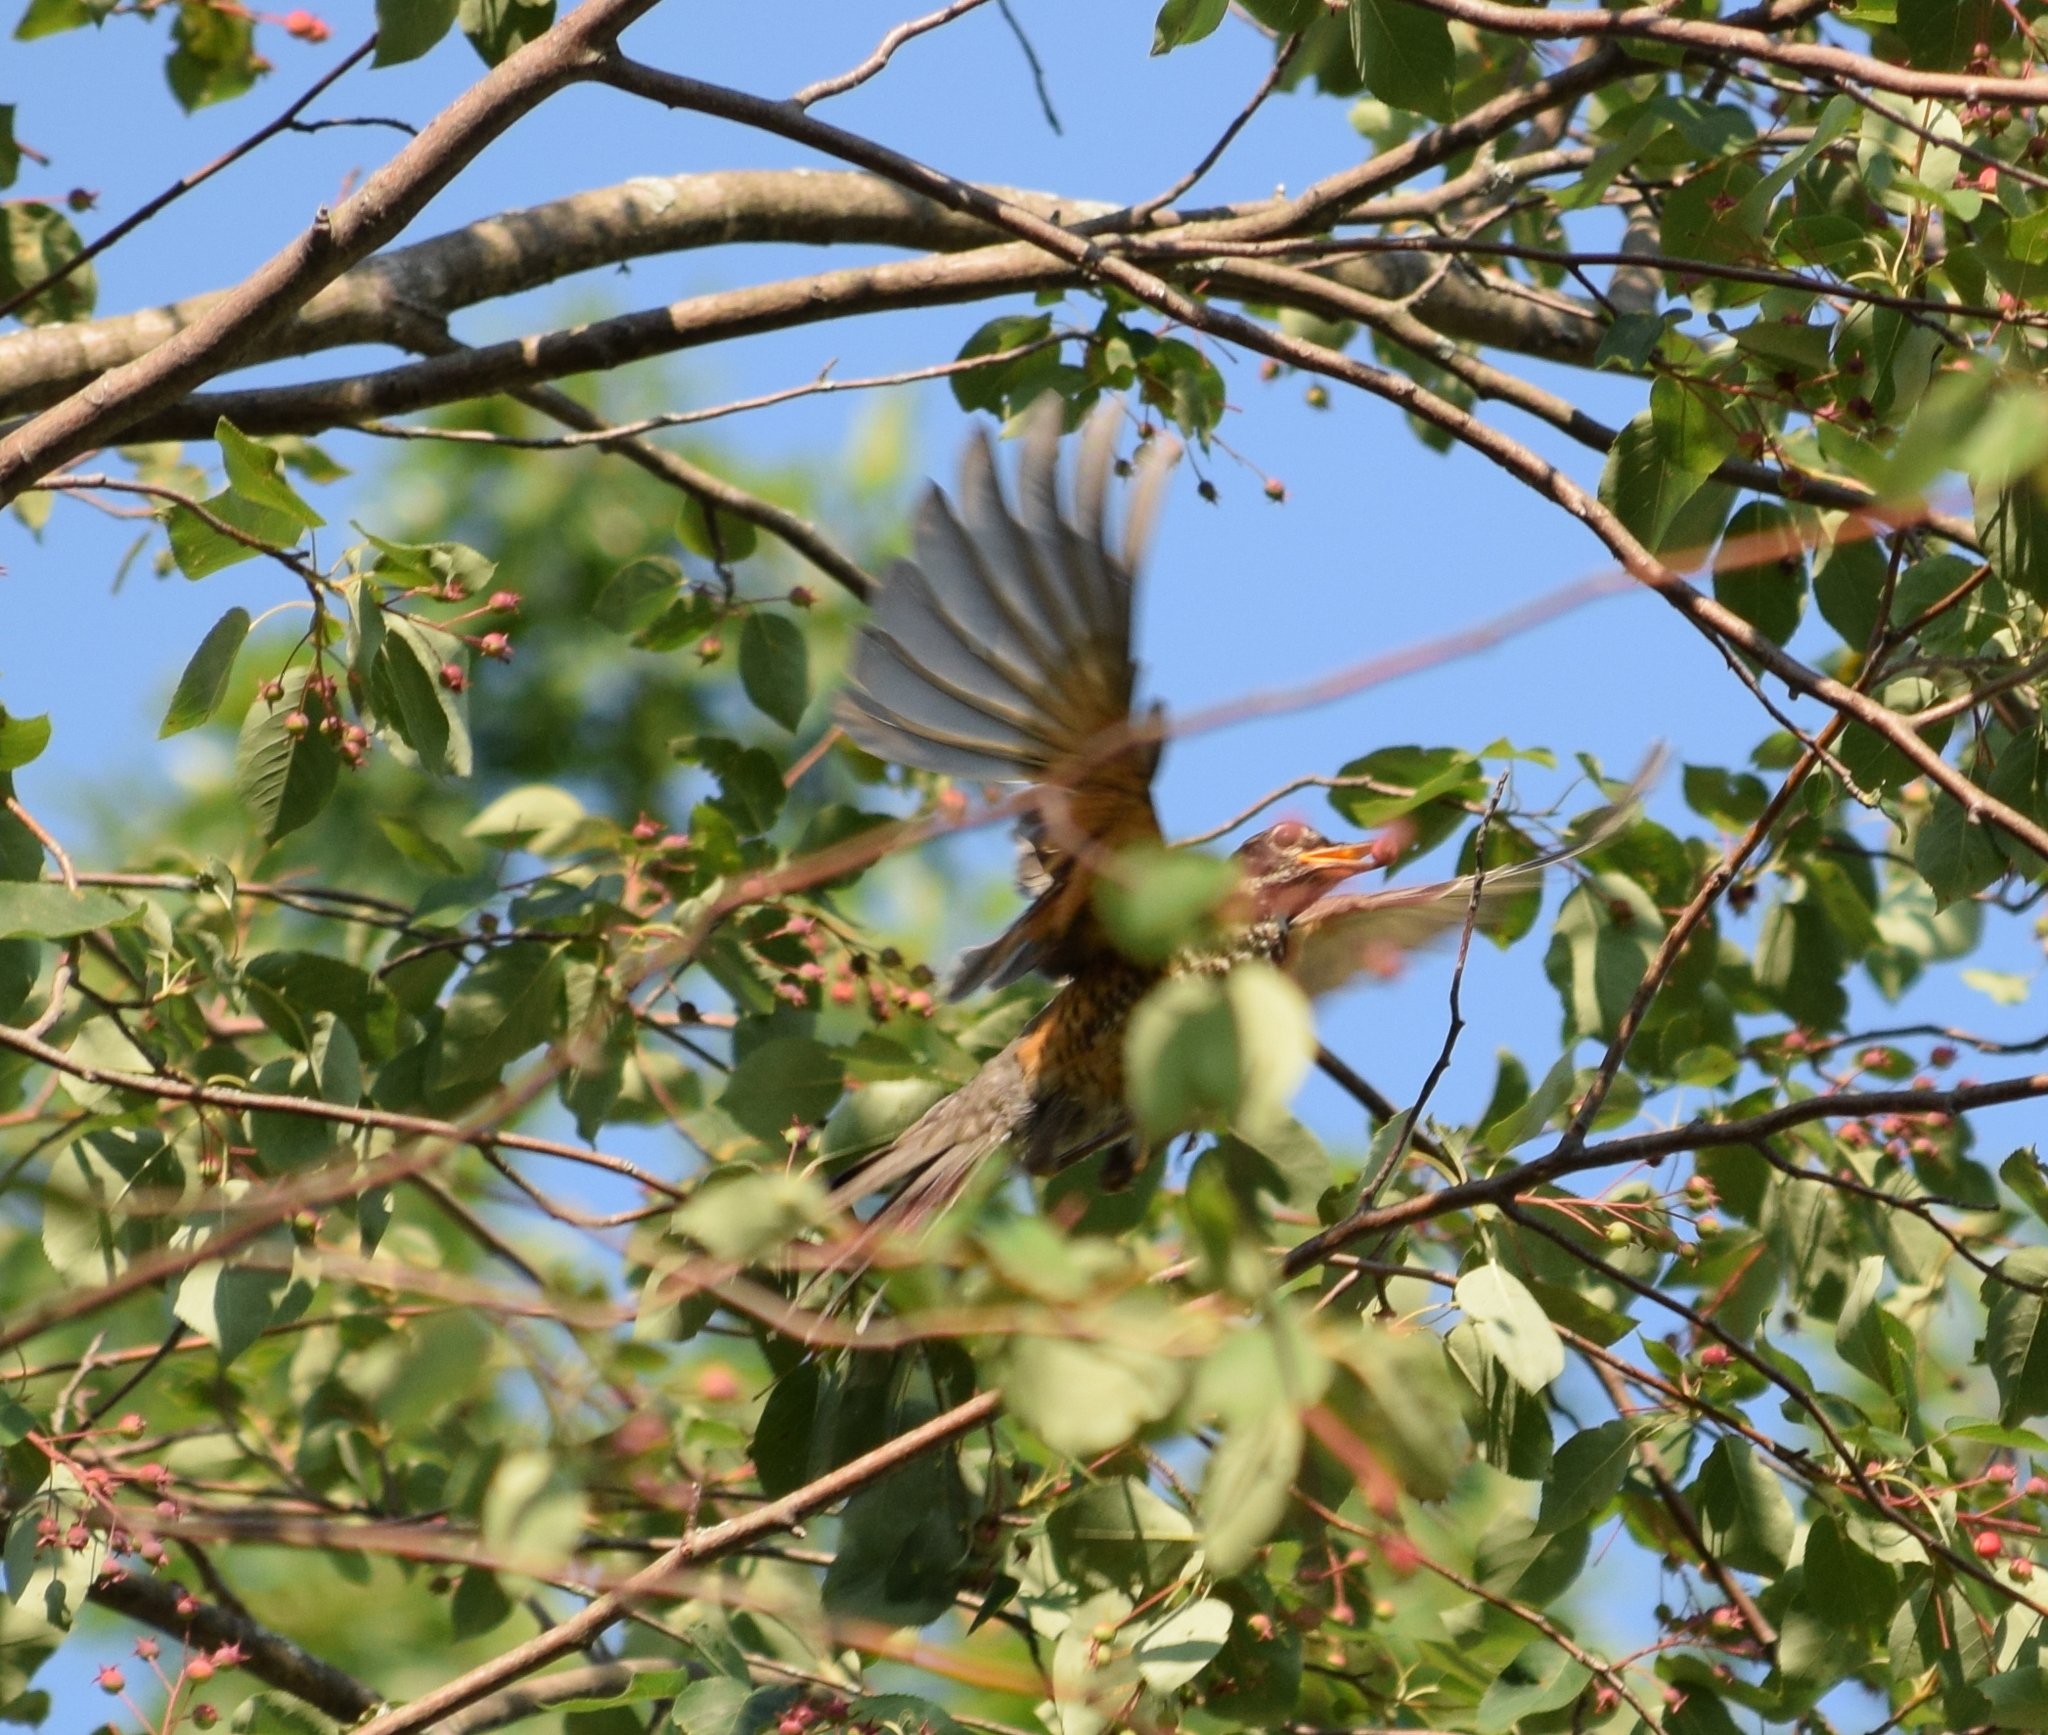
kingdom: Animalia
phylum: Chordata
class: Aves
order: Passeriformes
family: Turdidae
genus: Turdus
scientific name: Turdus migratorius
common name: American robin
